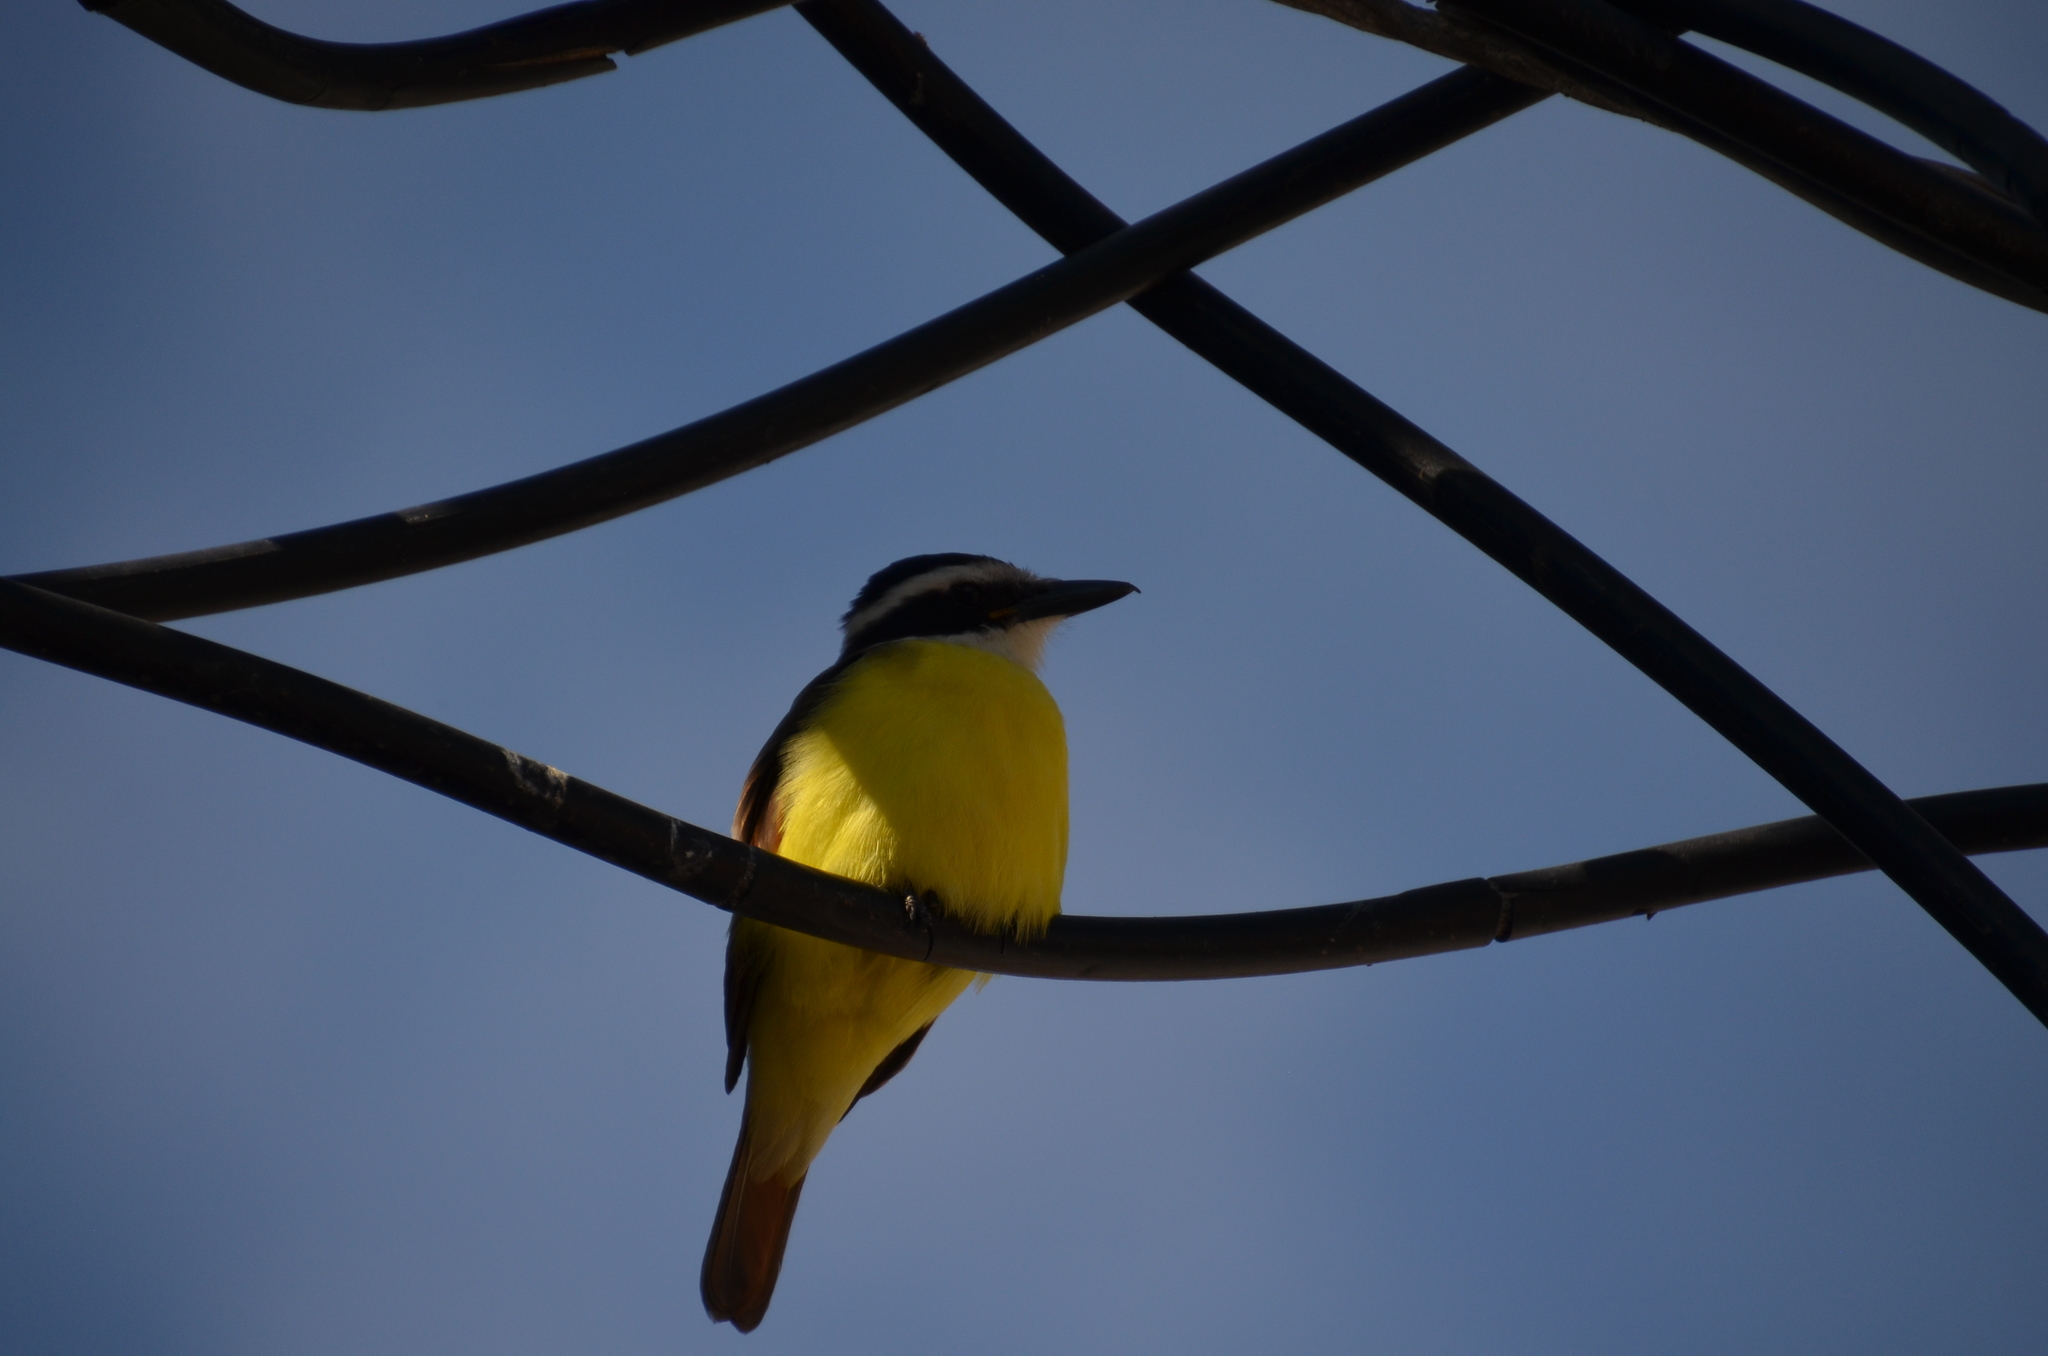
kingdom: Animalia
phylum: Chordata
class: Aves
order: Passeriformes
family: Tyrannidae
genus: Pitangus
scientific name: Pitangus sulphuratus
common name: Great kiskadee
